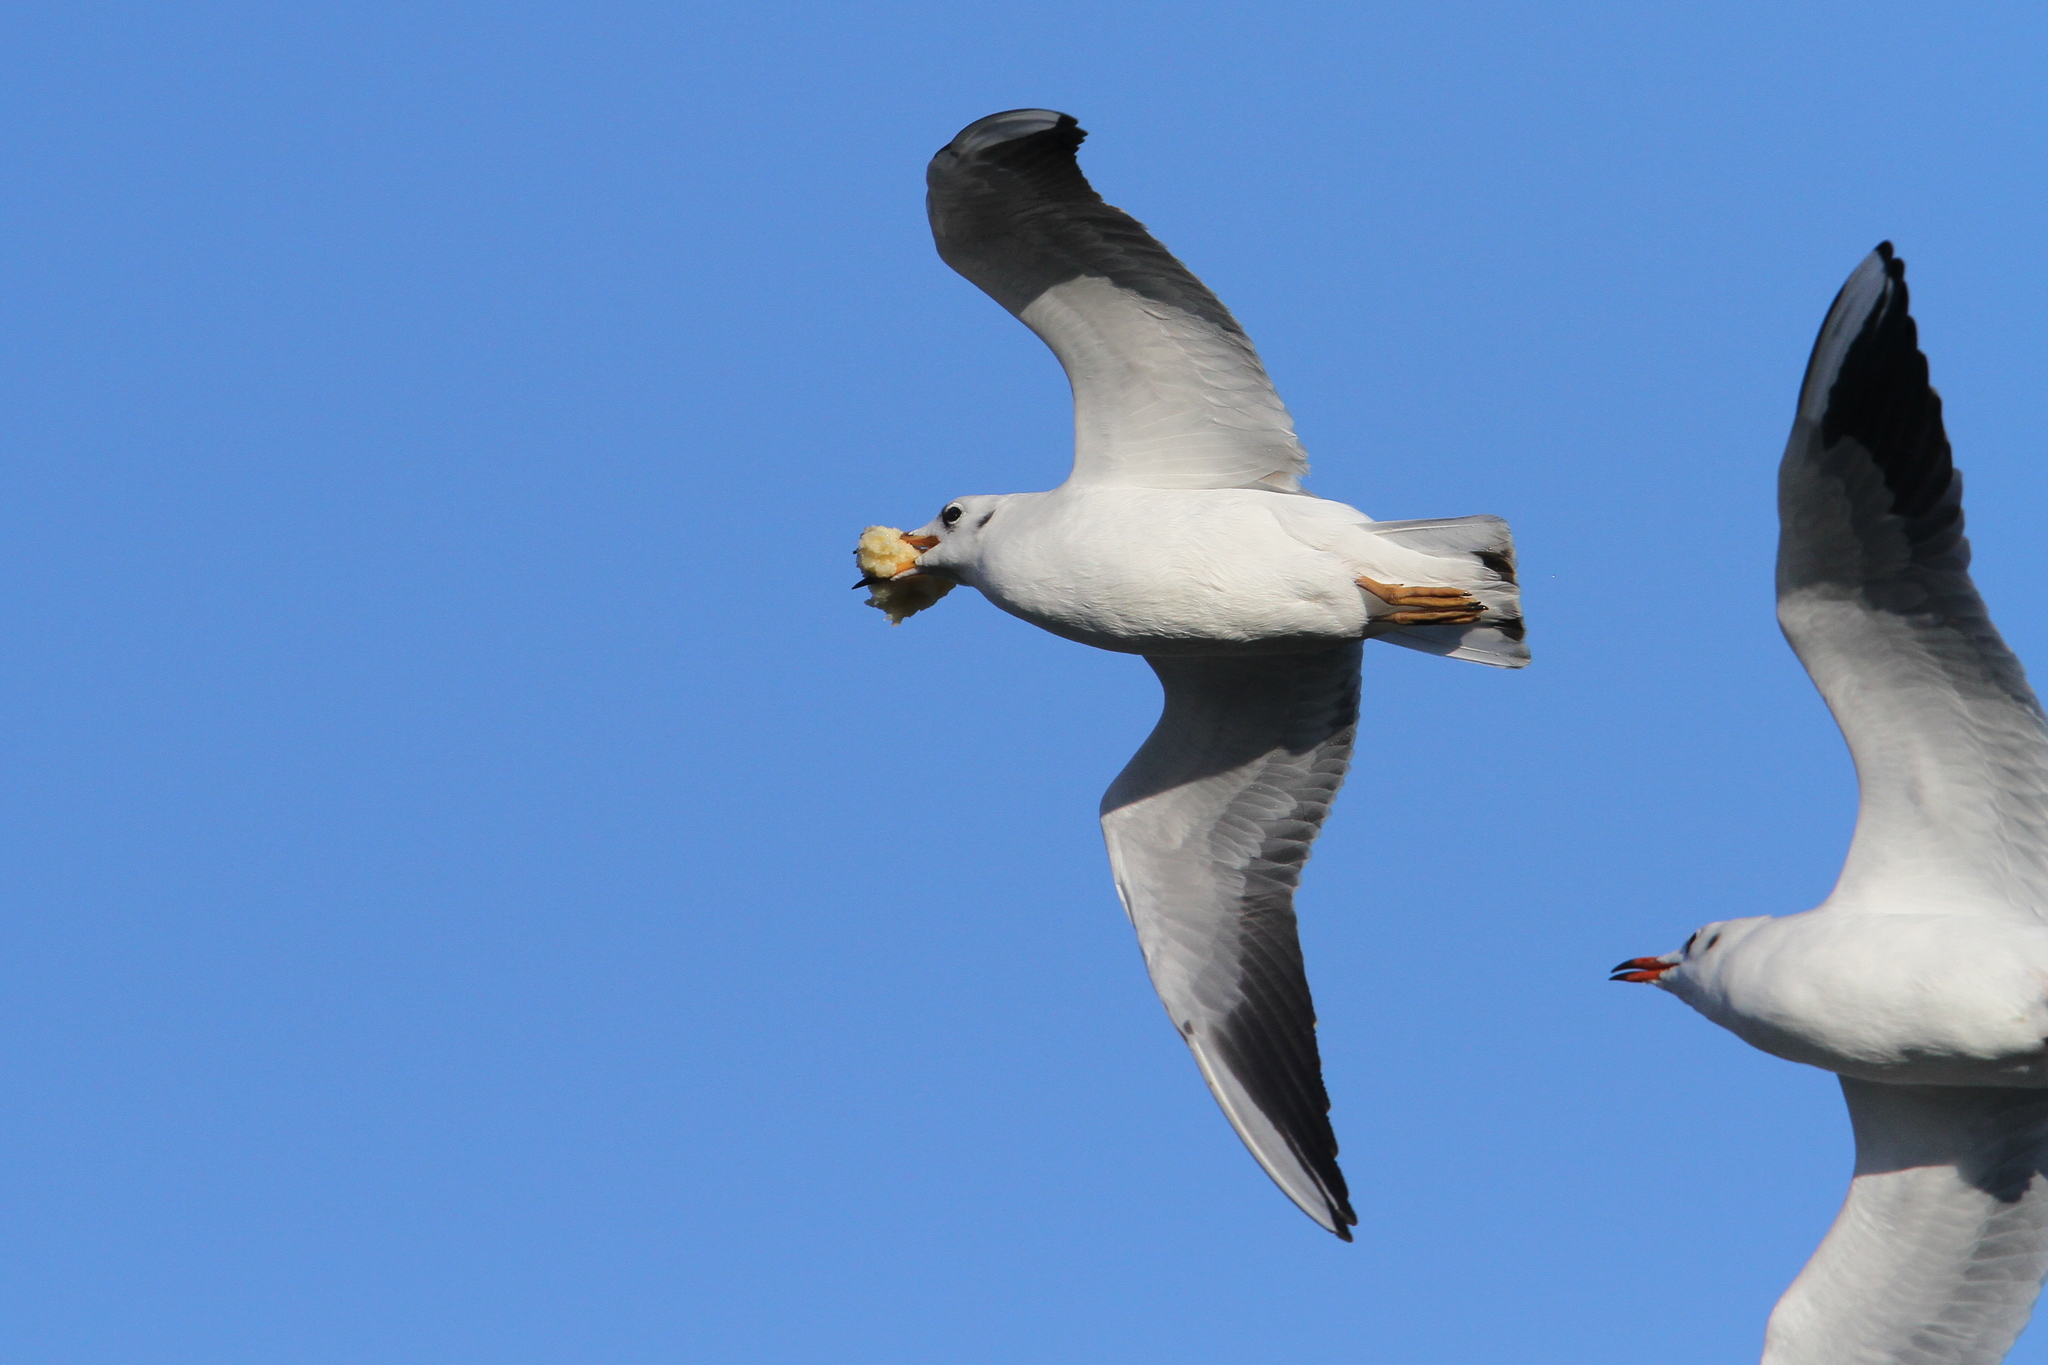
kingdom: Animalia
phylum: Chordata
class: Aves
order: Charadriiformes
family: Laridae
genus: Chroicocephalus
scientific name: Chroicocephalus ridibundus
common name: Black-headed gull
